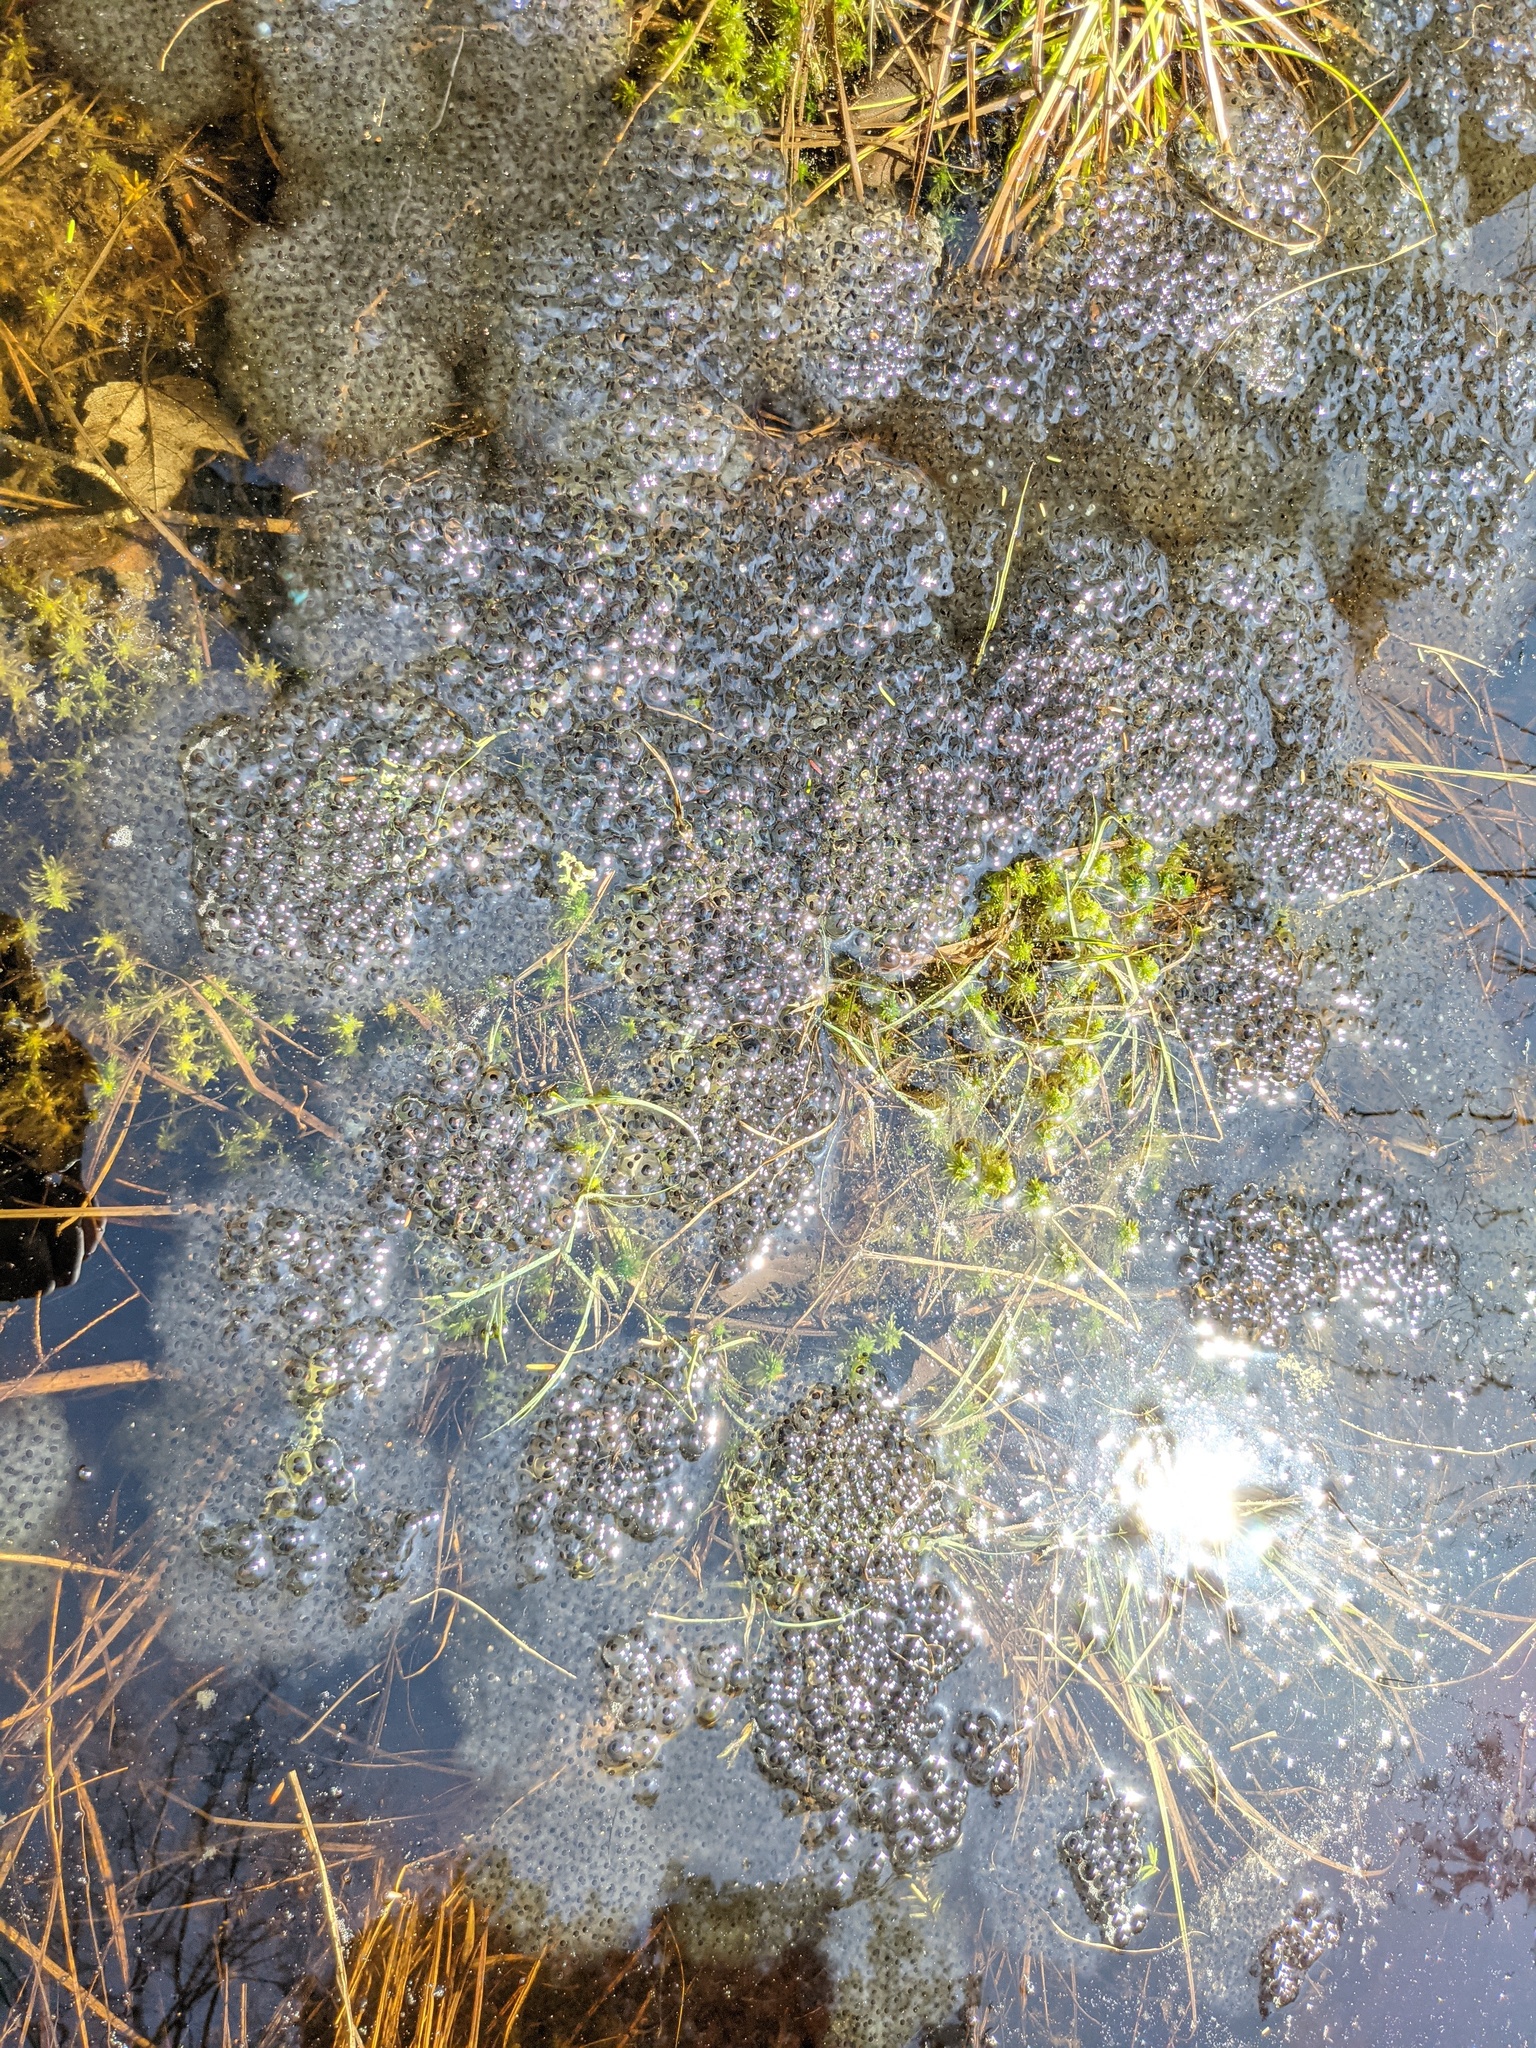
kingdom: Animalia
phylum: Chordata
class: Amphibia
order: Anura
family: Ranidae
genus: Lithobates
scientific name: Lithobates sylvaticus
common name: Wood frog
